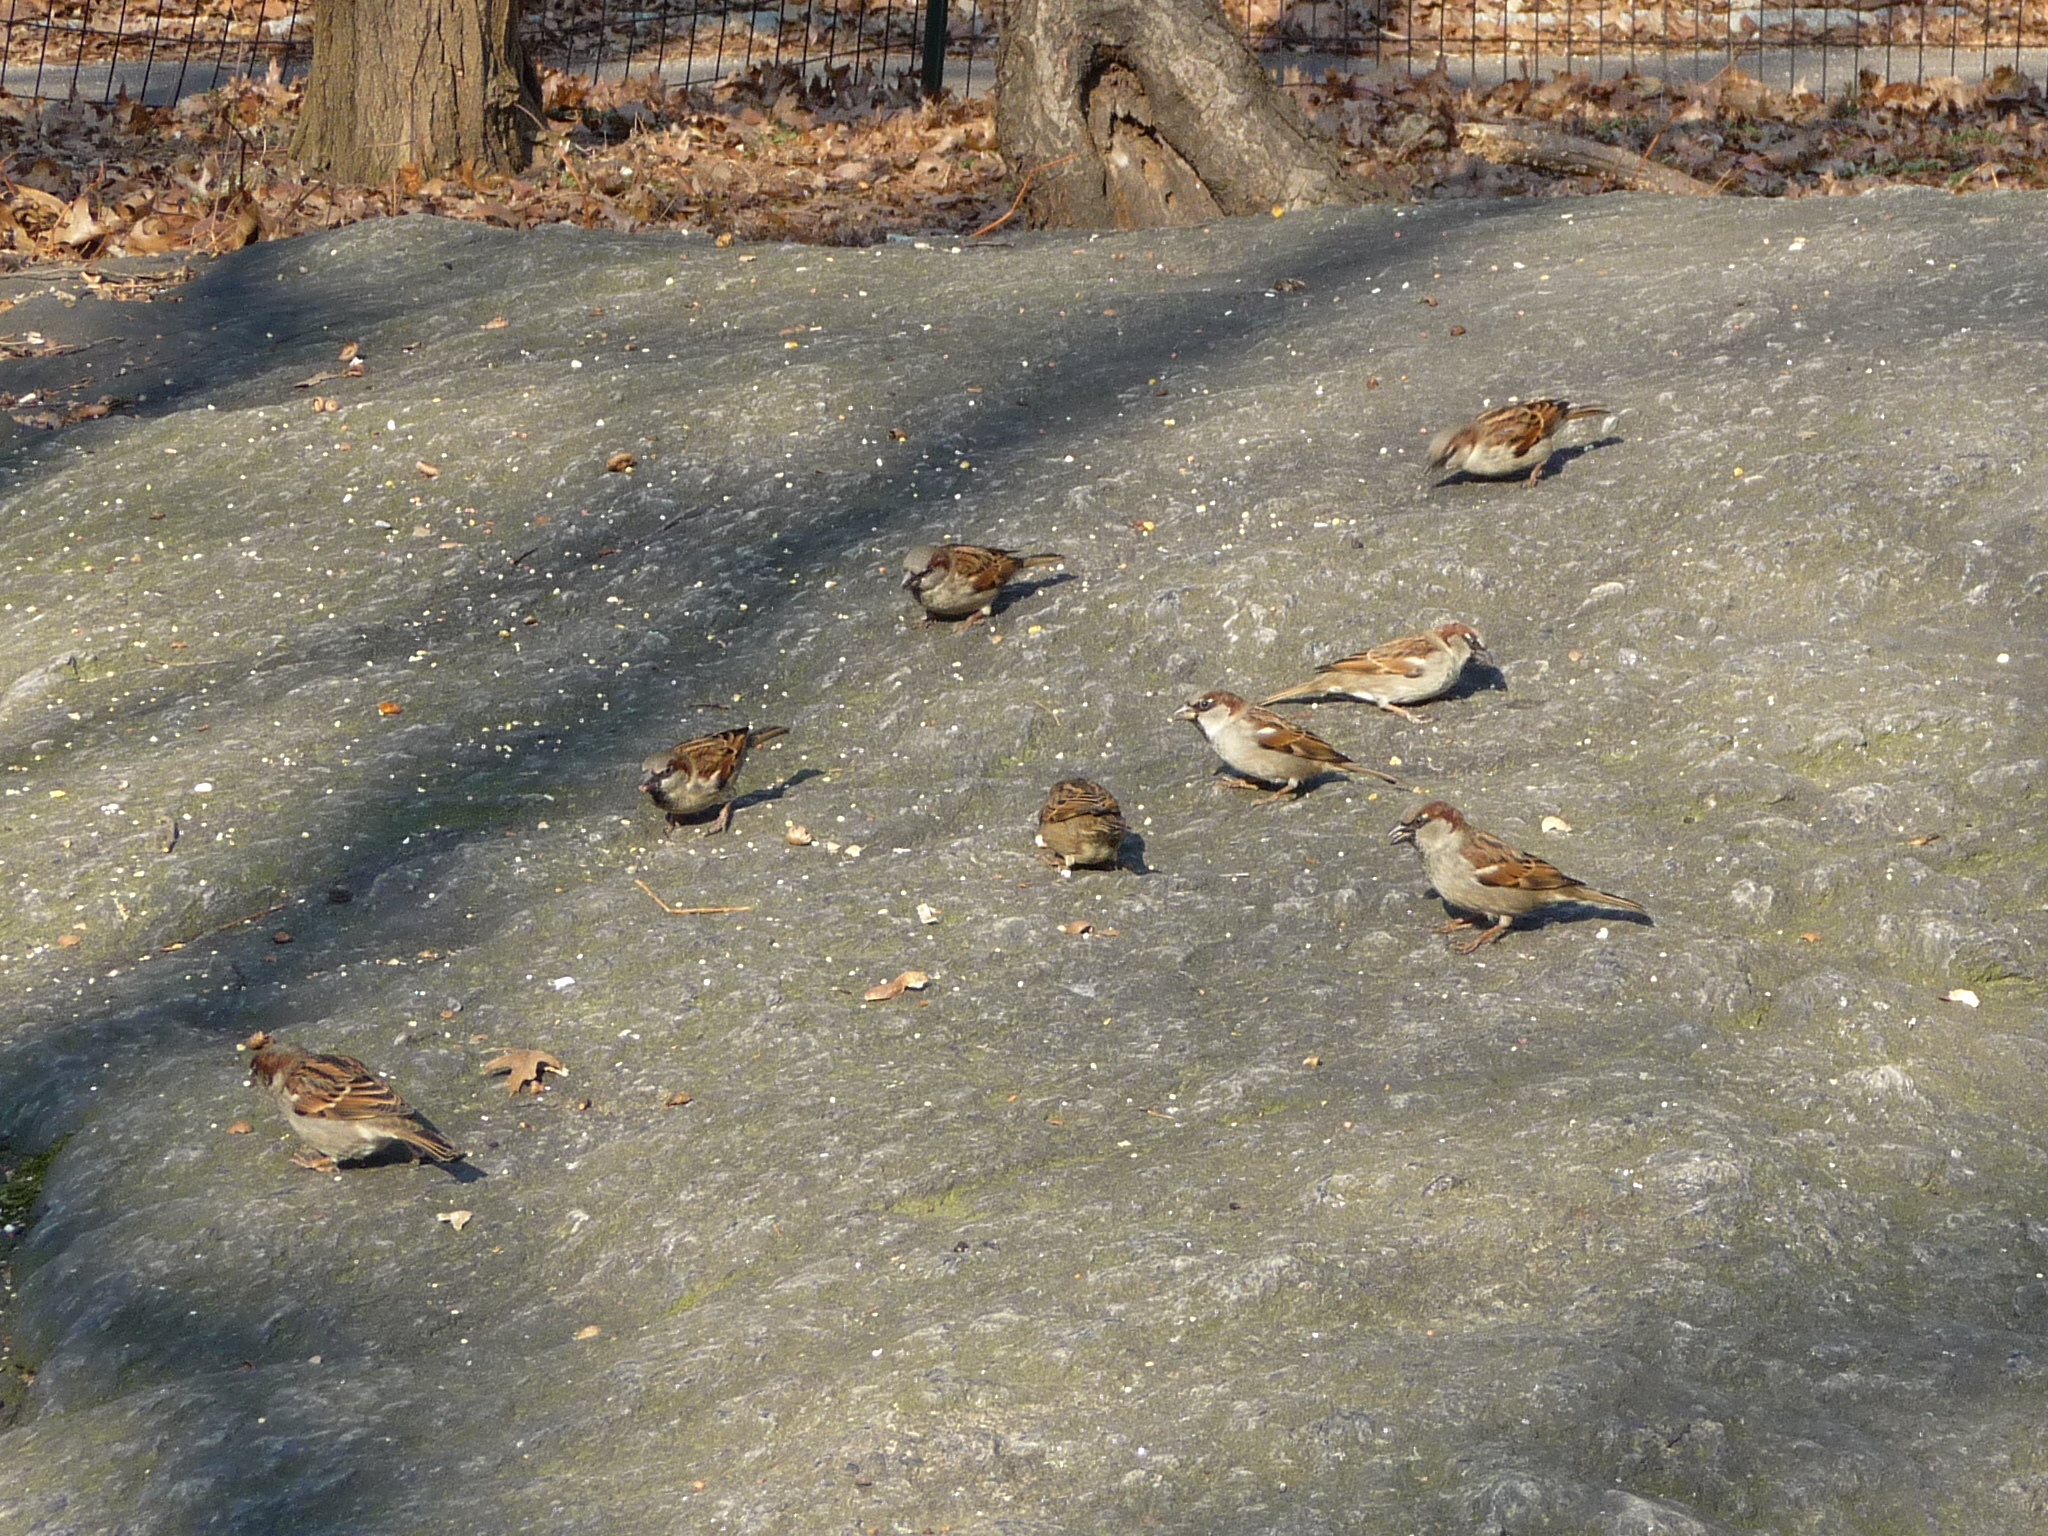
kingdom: Animalia
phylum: Chordata
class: Aves
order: Passeriformes
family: Passeridae
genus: Passer
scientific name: Passer domesticus
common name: House sparrow
